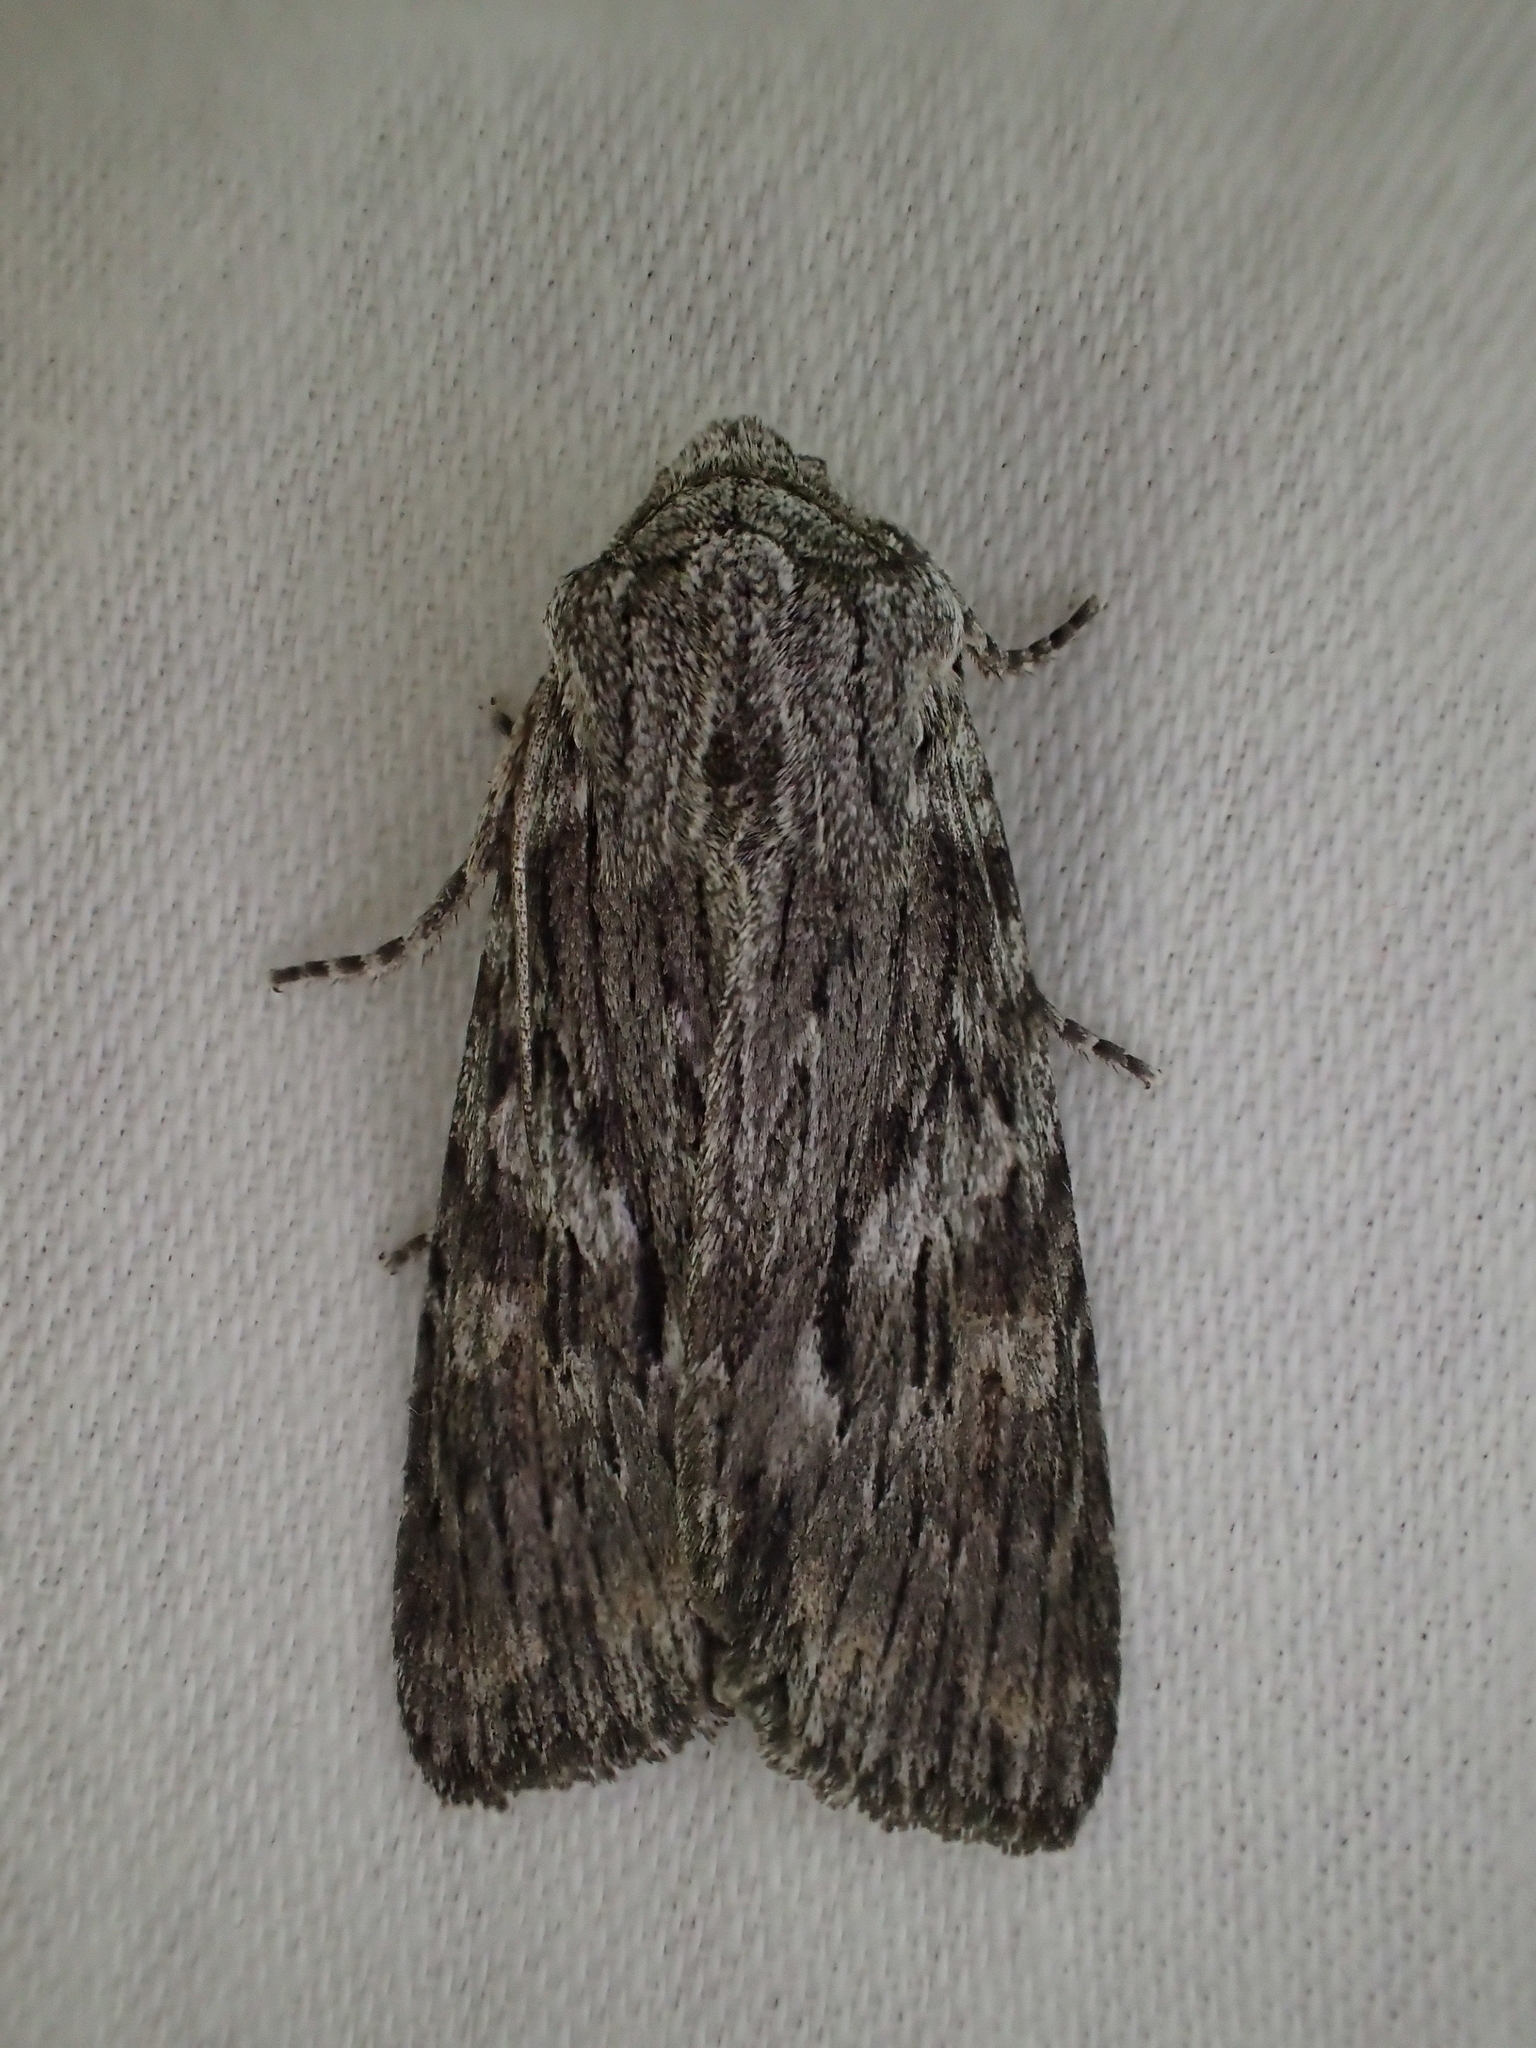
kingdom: Animalia
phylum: Arthropoda
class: Insecta
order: Lepidoptera
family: Noctuidae
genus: Scotochrosta
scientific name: Scotochrosta pulla
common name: Ash shoulder-knot
